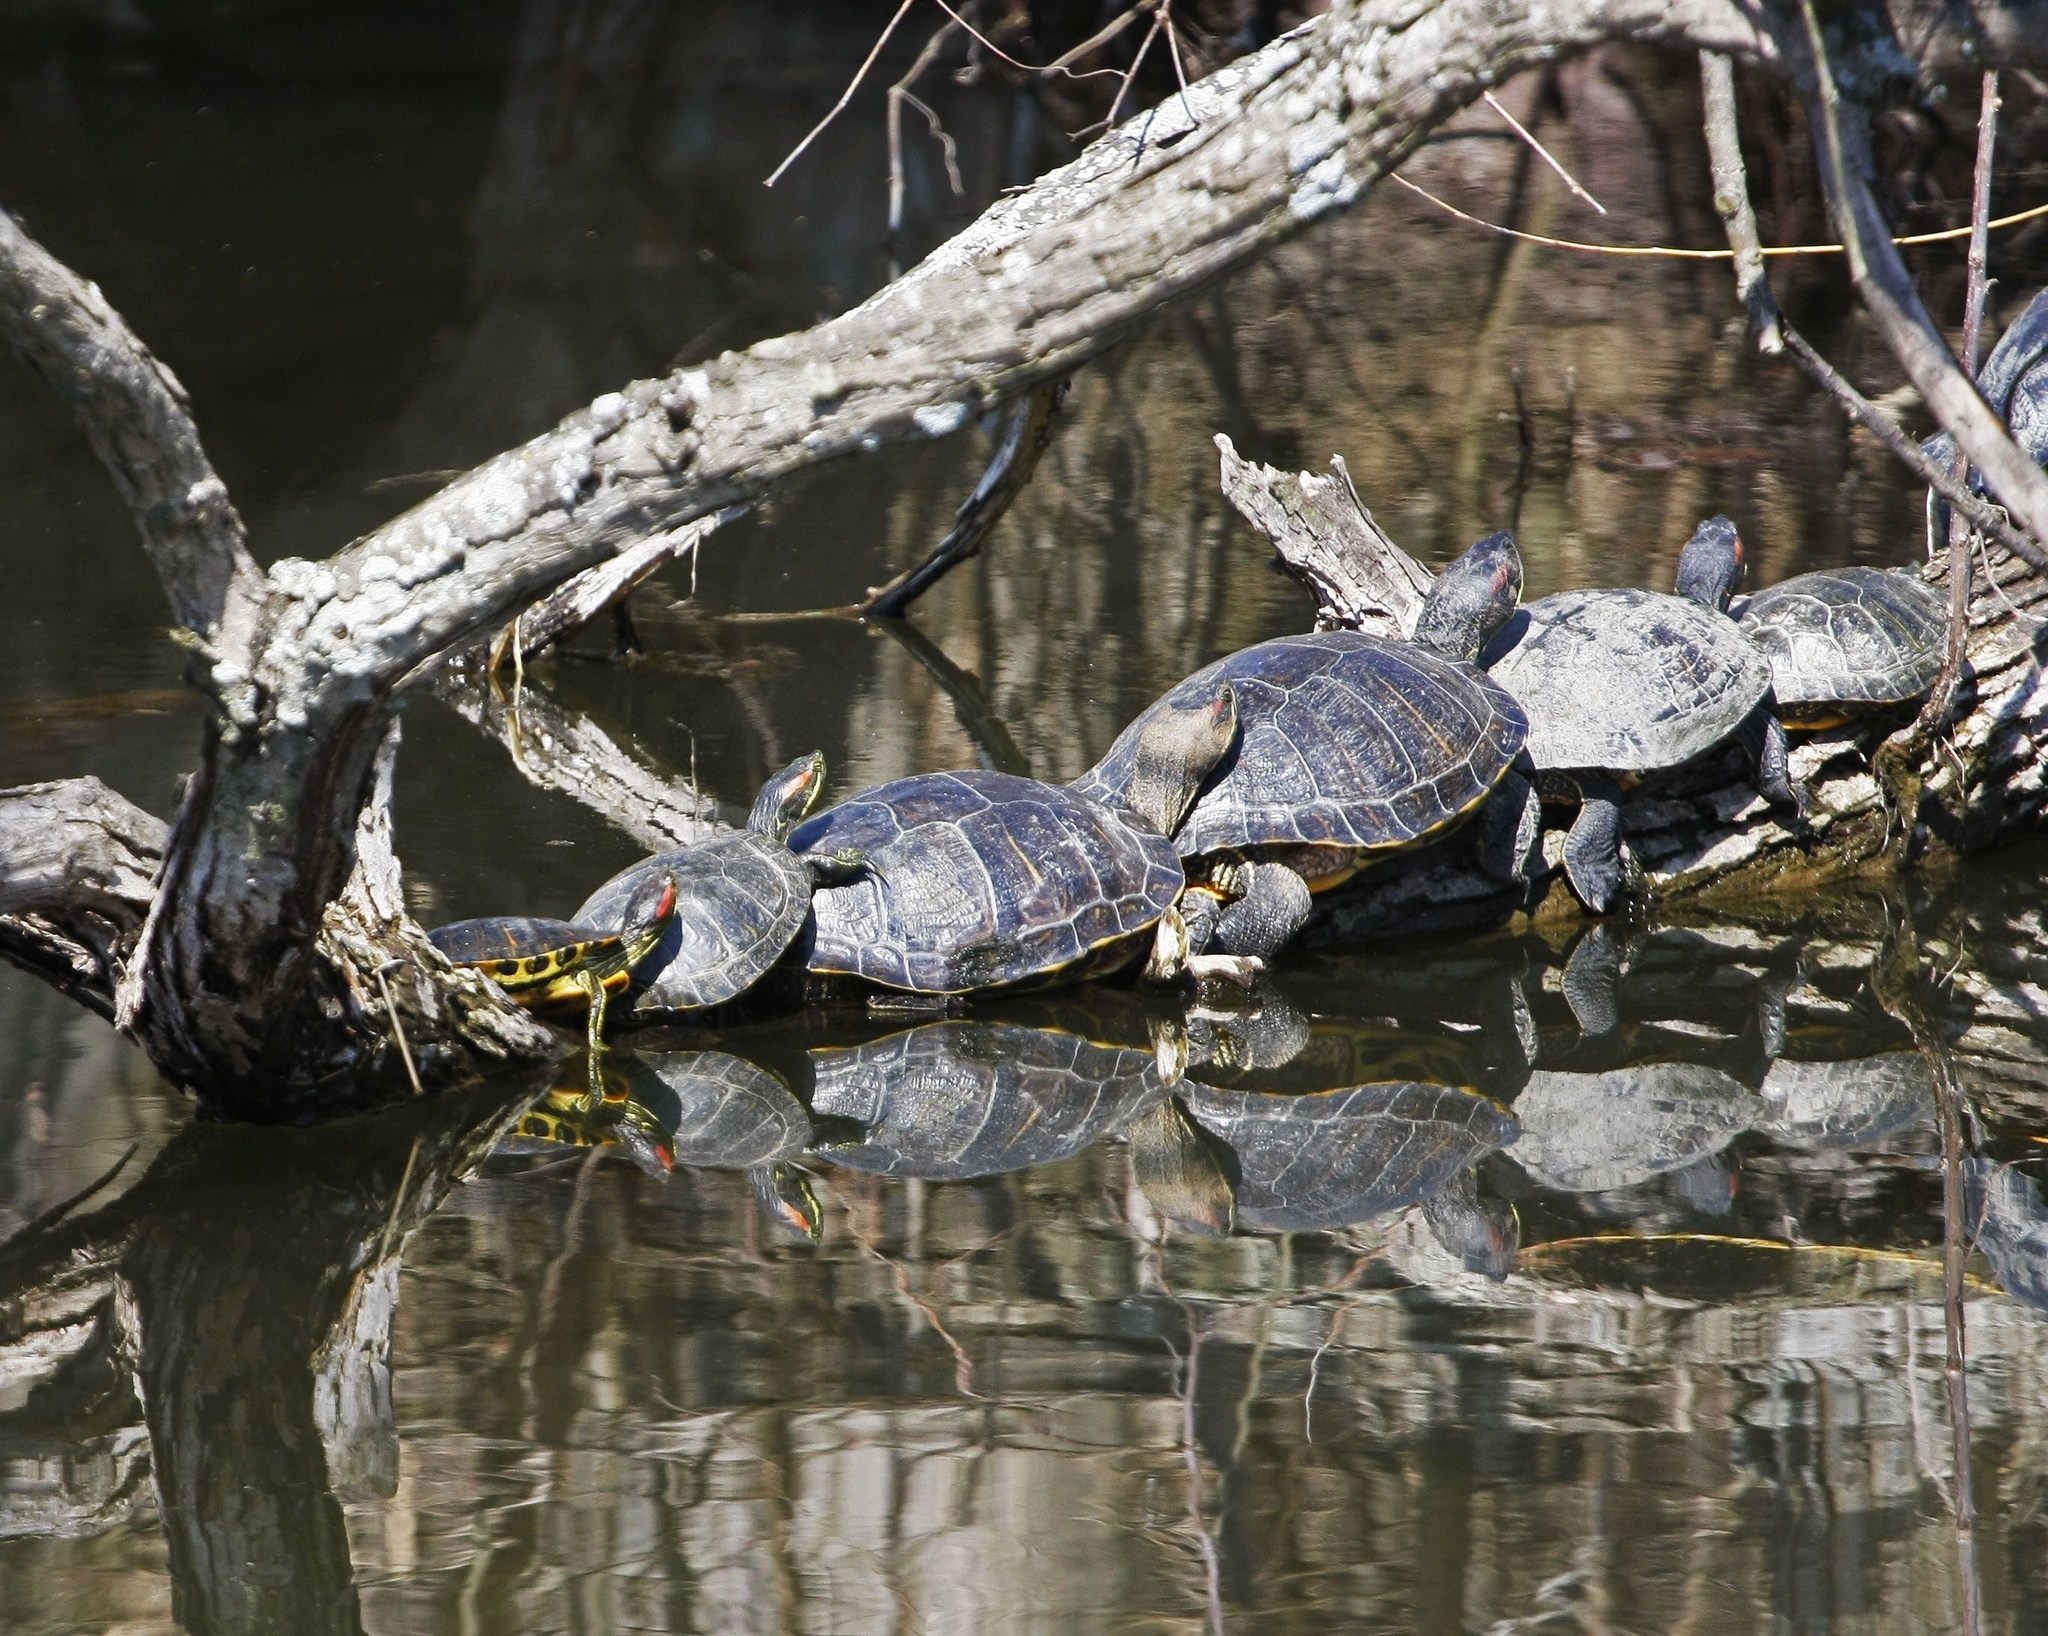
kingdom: Animalia
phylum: Chordata
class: Testudines
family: Emydidae
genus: Trachemys
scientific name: Trachemys scripta
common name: Slider
